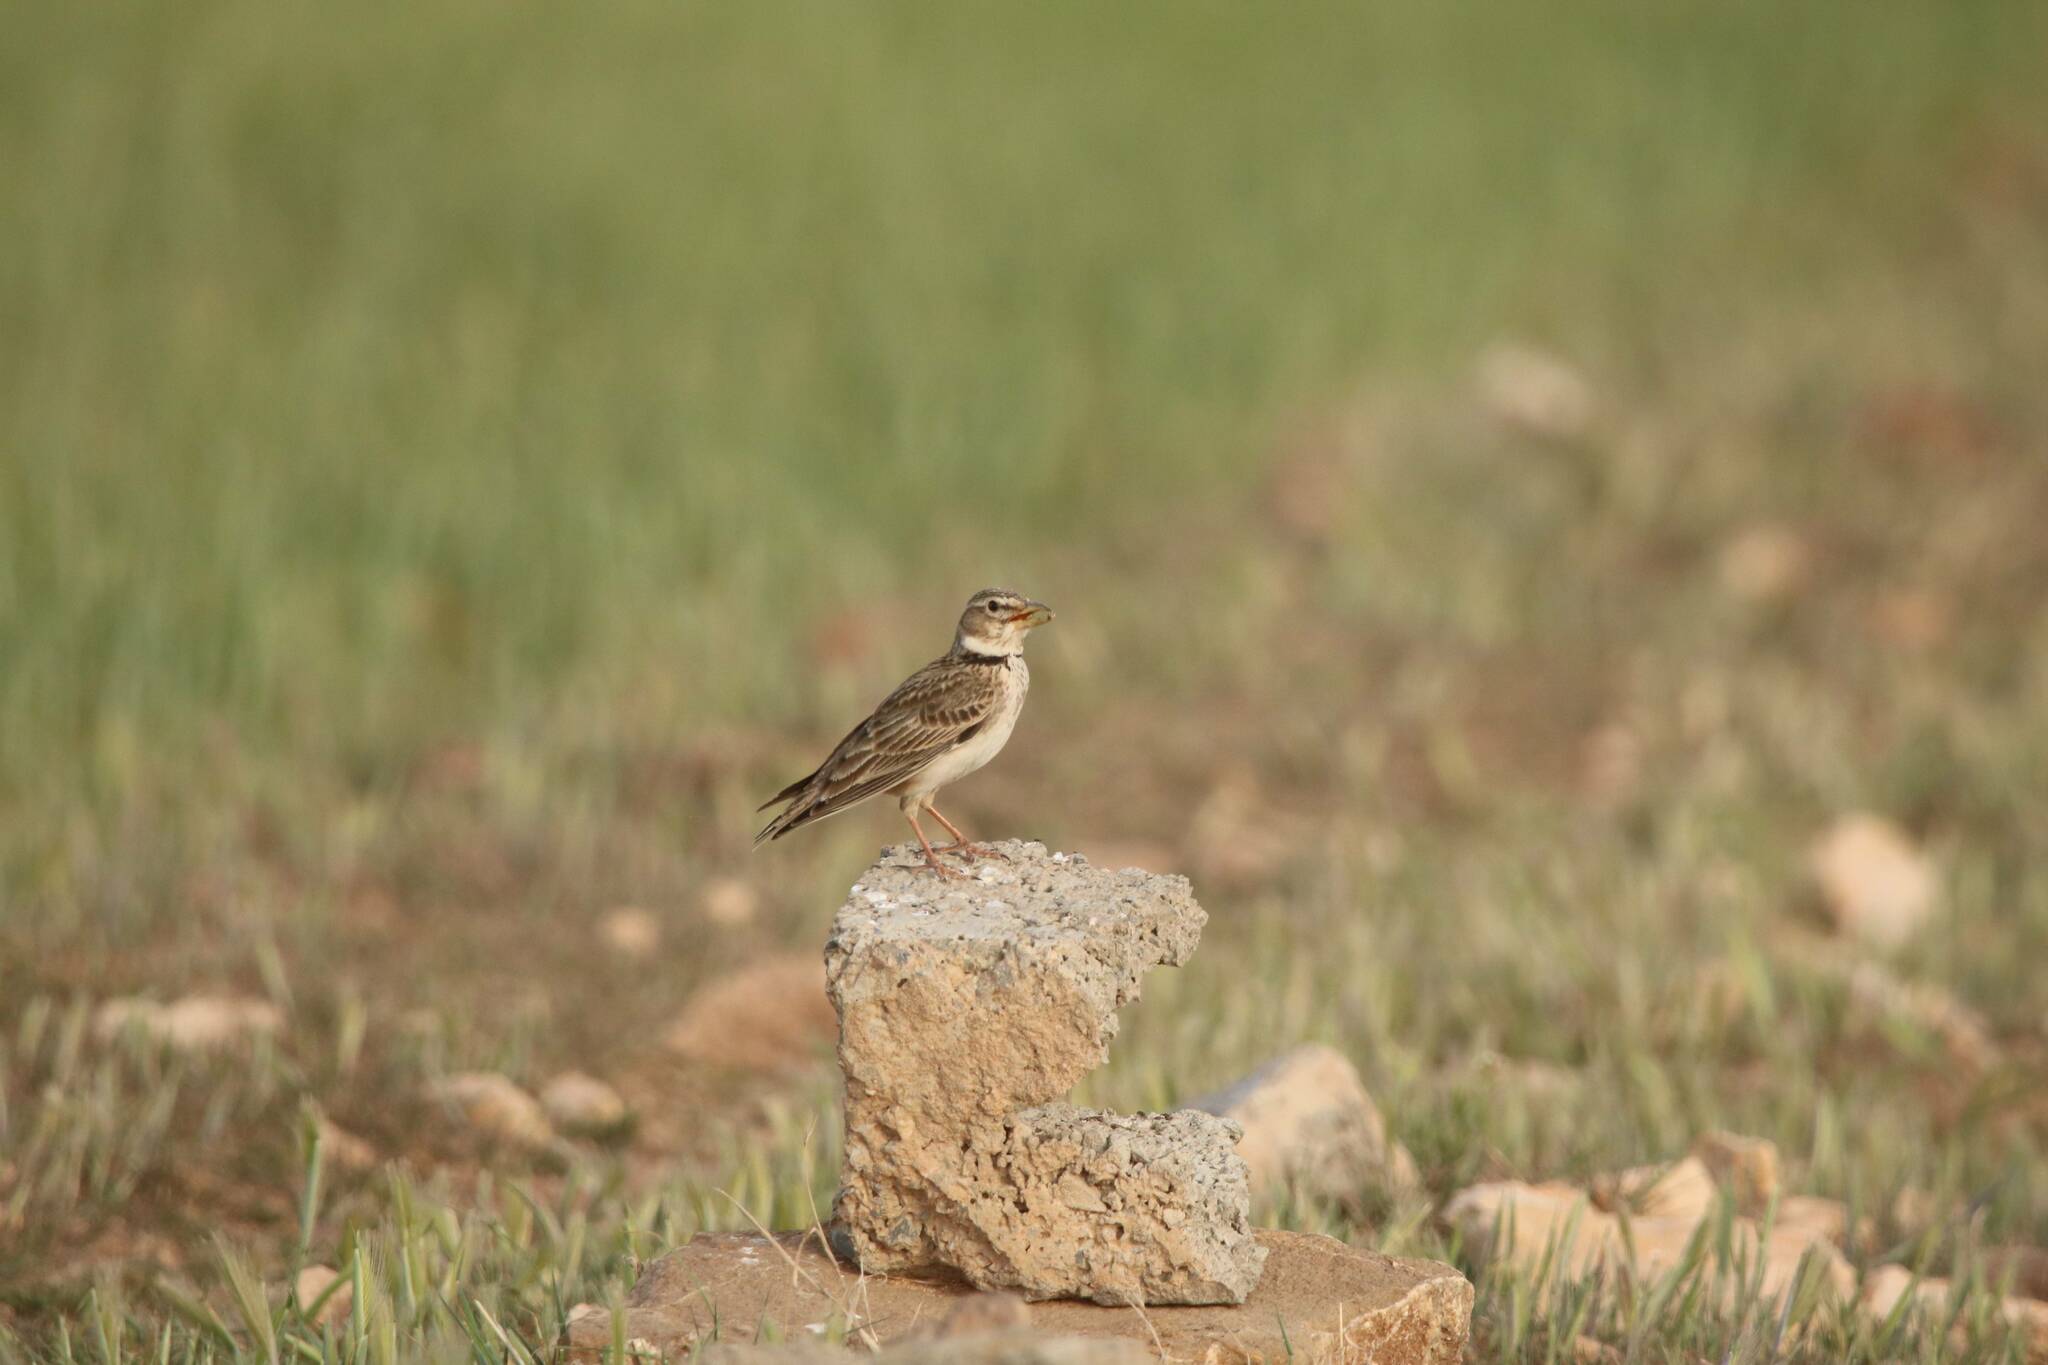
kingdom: Animalia
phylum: Chordata
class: Aves
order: Passeriformes
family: Alaudidae
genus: Melanocorypha
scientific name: Melanocorypha calandra
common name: Calandra lark
